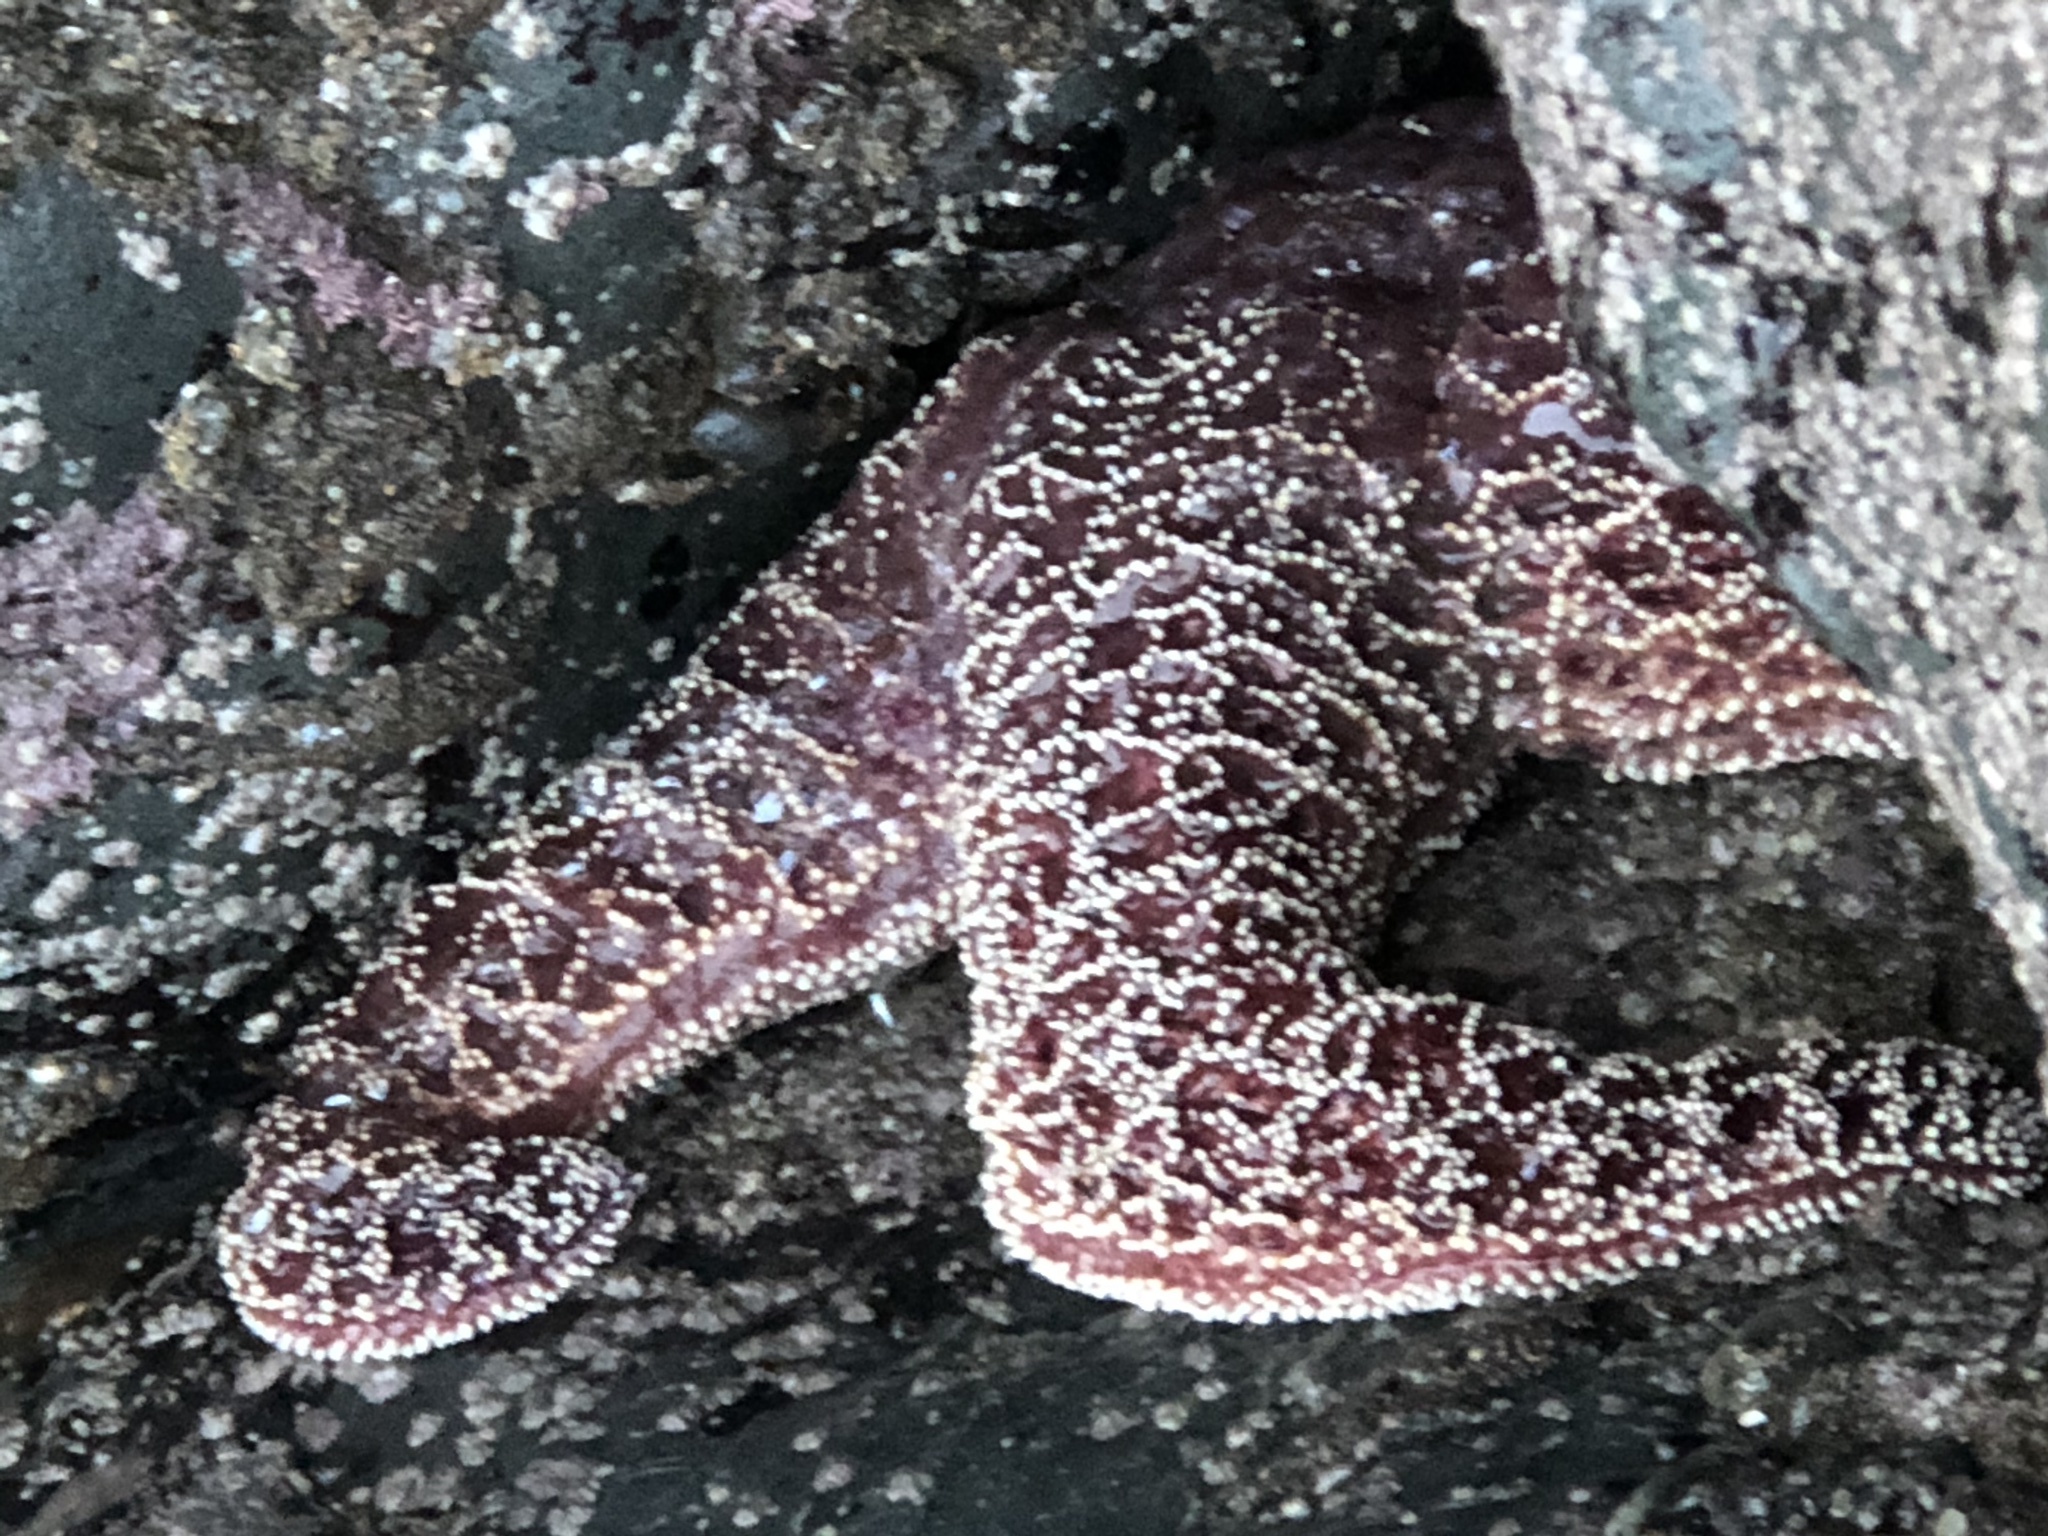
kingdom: Animalia
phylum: Echinodermata
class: Asteroidea
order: Forcipulatida
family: Asteriidae
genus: Pisaster
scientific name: Pisaster ochraceus
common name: Ochre stars
